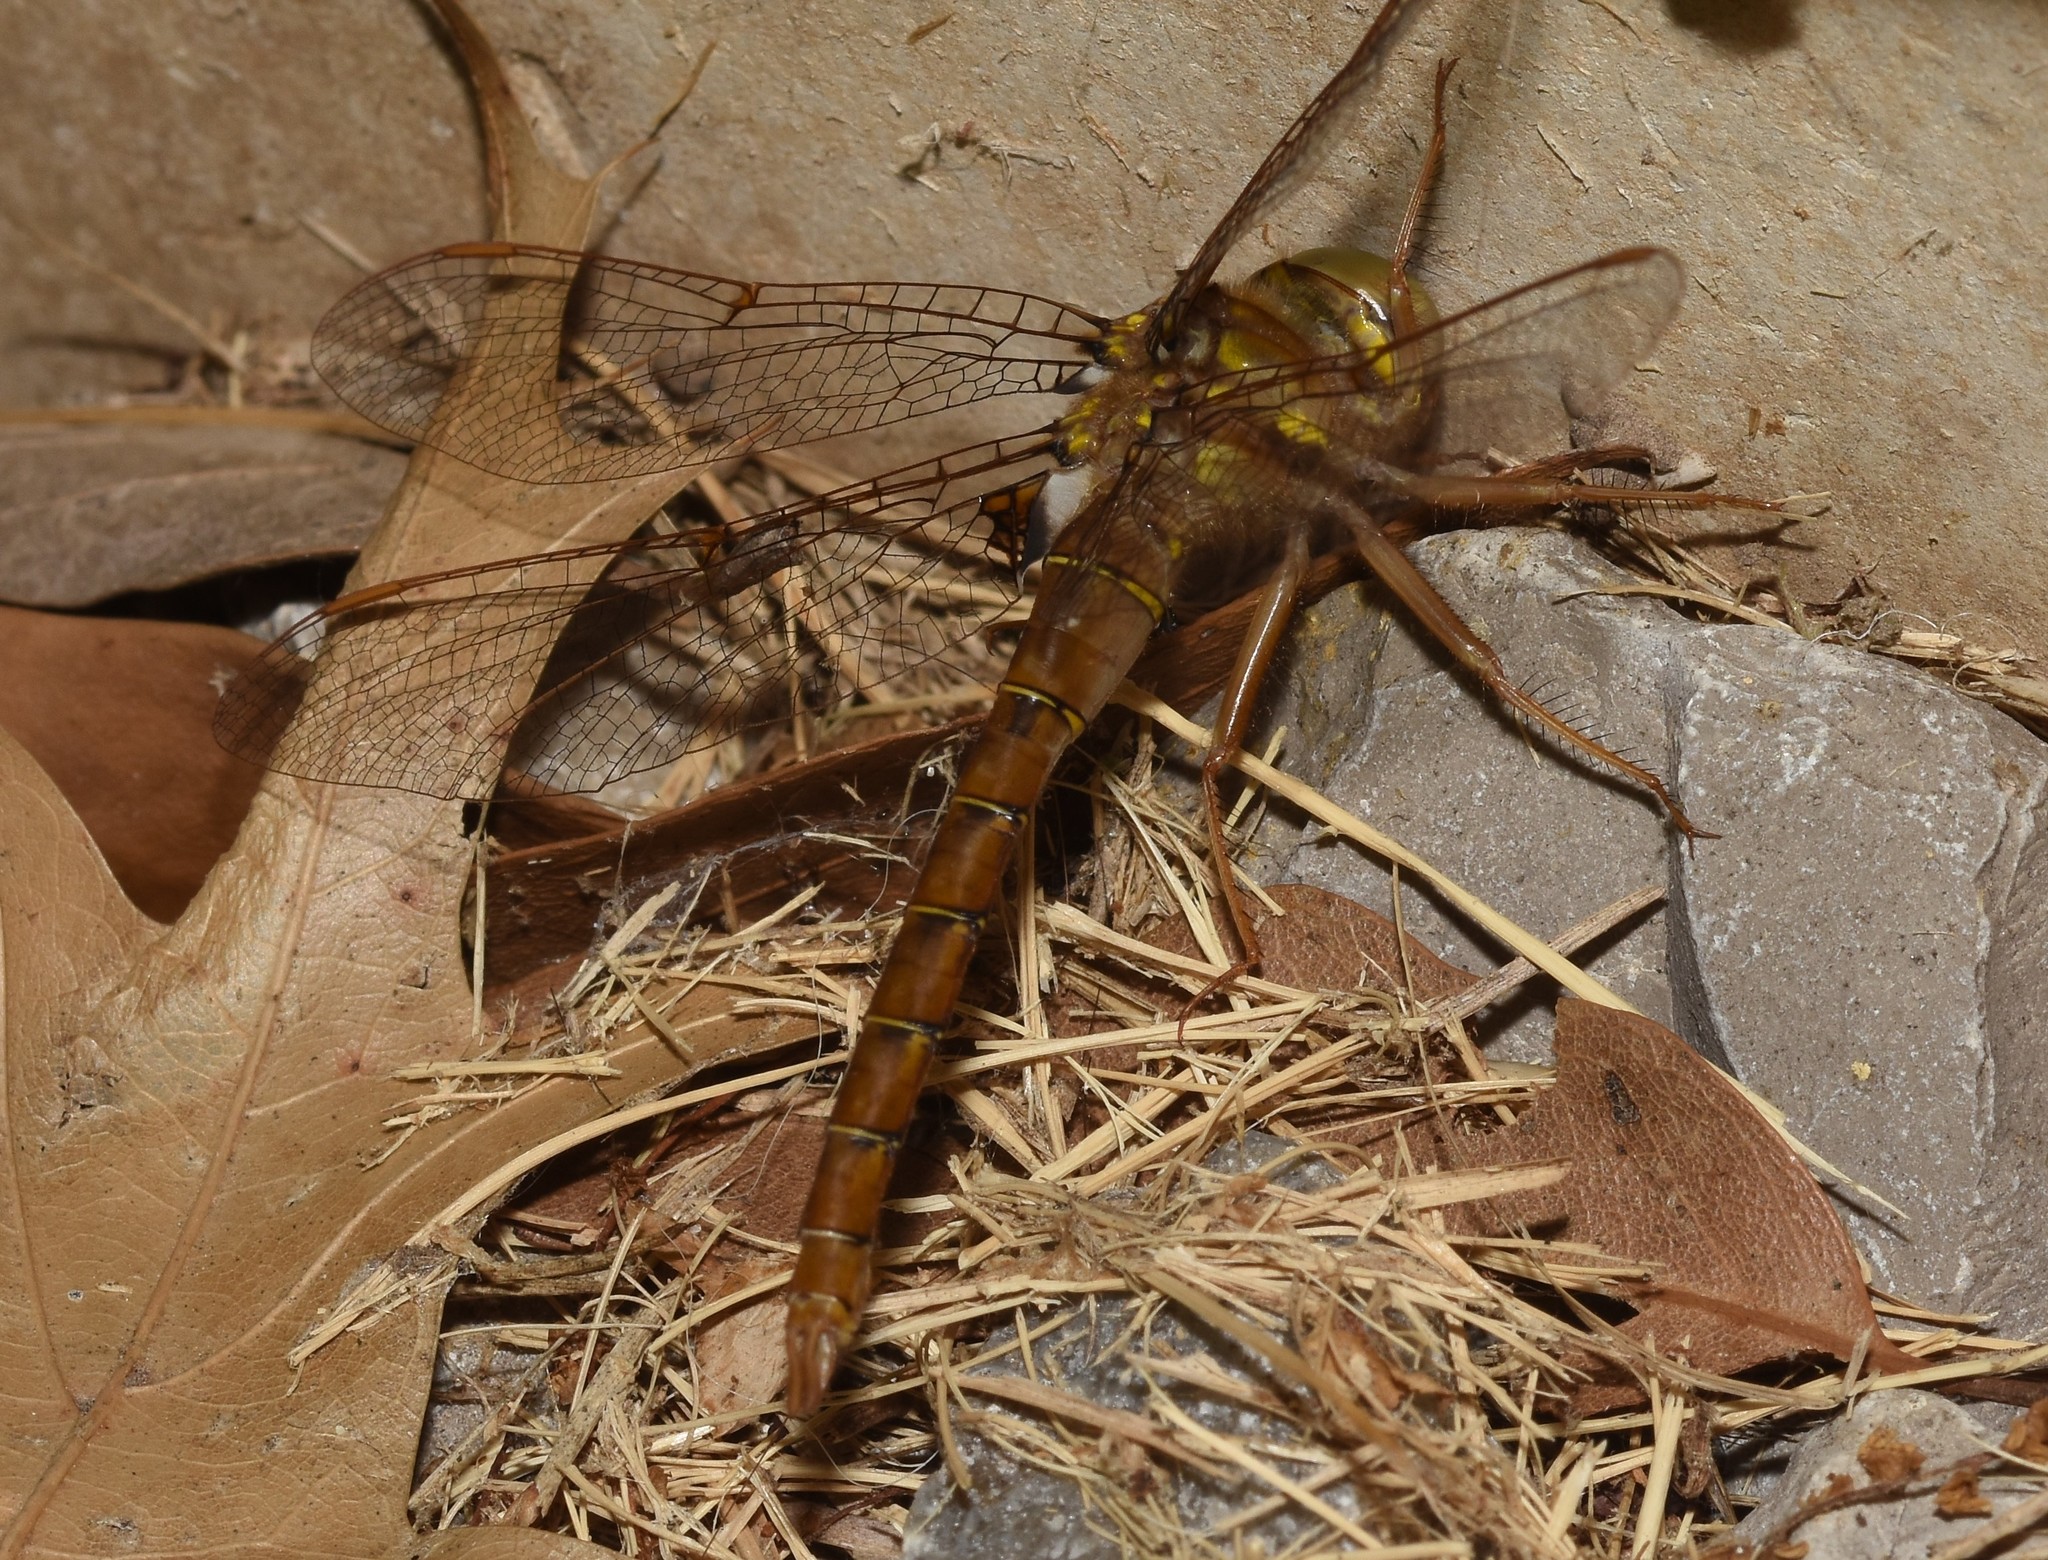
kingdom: Animalia
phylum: Arthropoda
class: Insecta
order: Odonata
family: Corduliidae
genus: Neurocordulia
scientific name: Neurocordulia molesta
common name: Smoky shadowdragon
